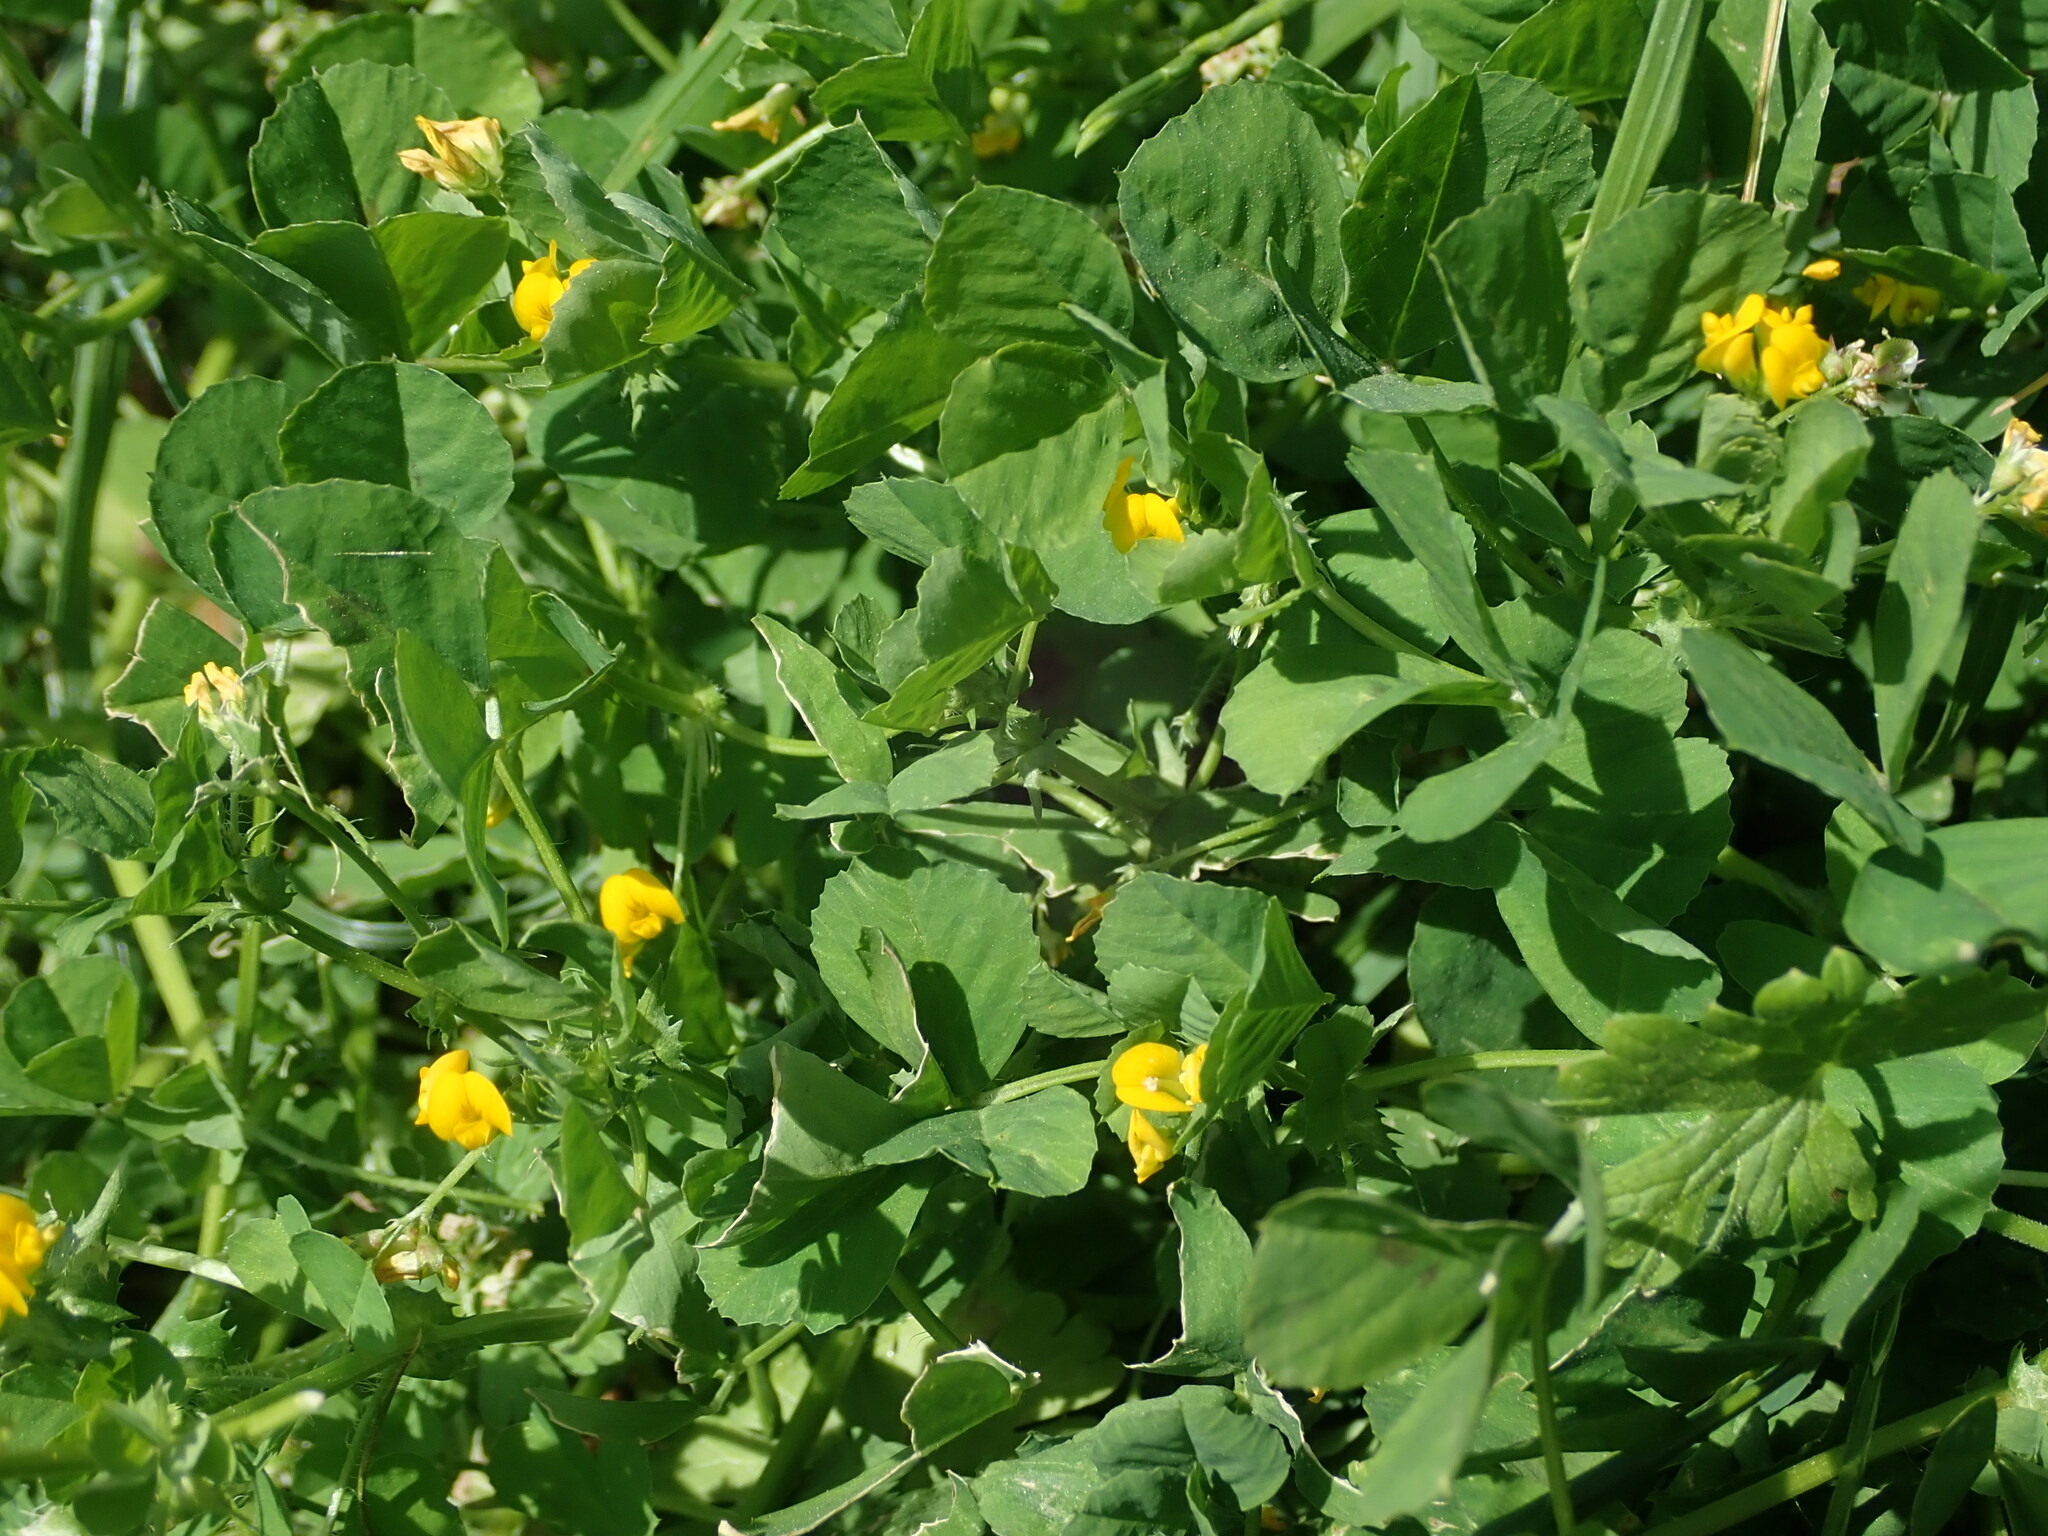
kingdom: Plantae
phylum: Tracheophyta
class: Magnoliopsida
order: Fabales
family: Fabaceae
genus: Medicago
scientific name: Medicago arabica
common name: Spotted medick
